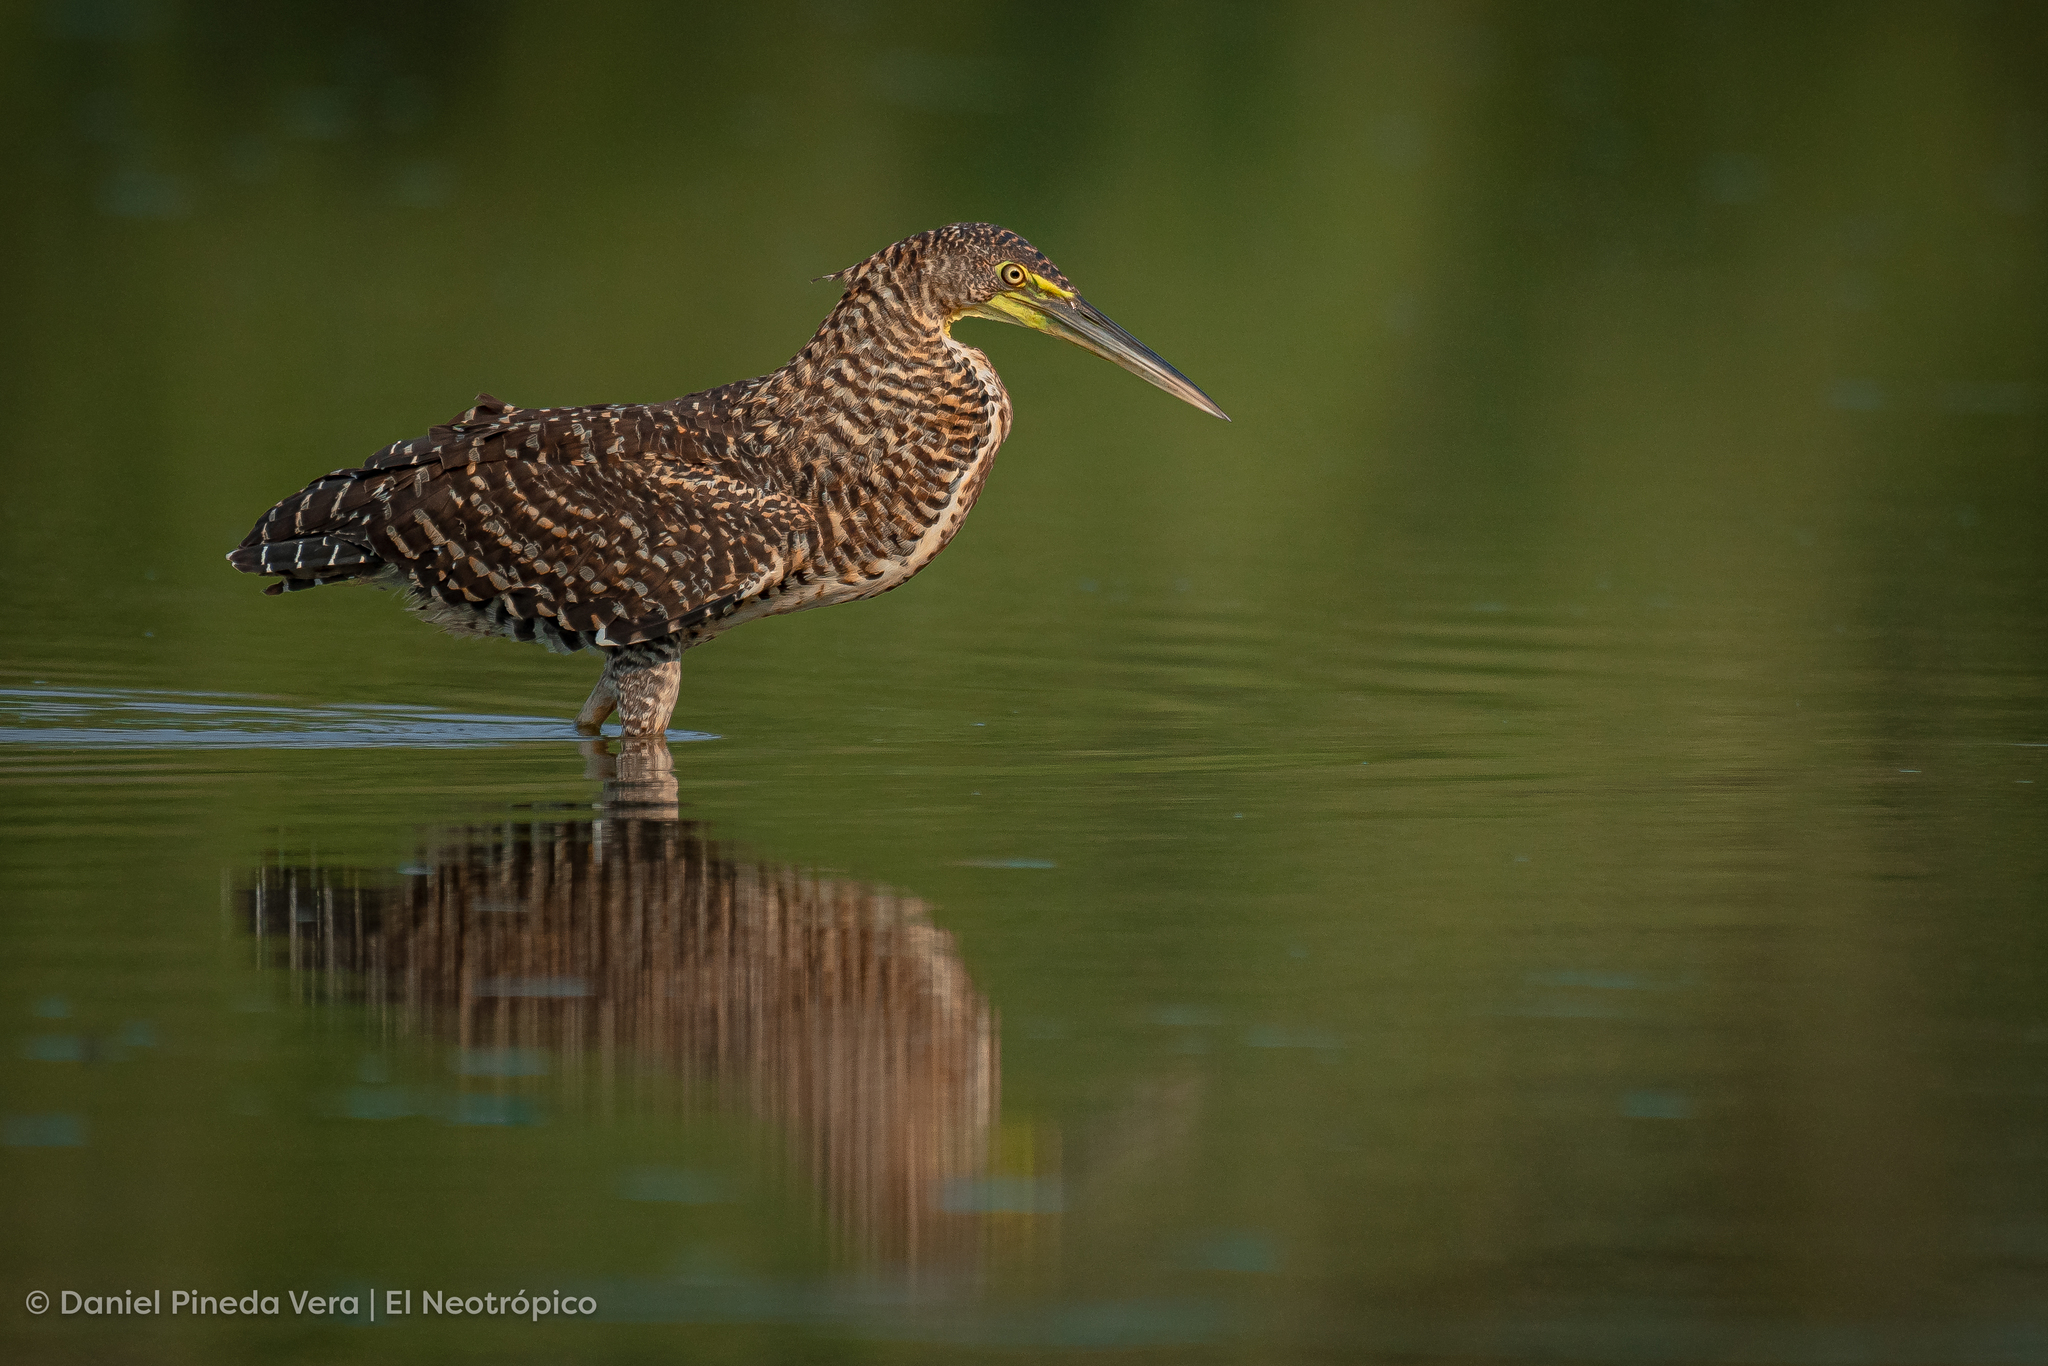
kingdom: Animalia
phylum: Chordata
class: Aves
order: Pelecaniformes
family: Ardeidae
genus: Tigrisoma
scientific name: Tigrisoma mexicanum
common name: Bare-throated tiger-heron
